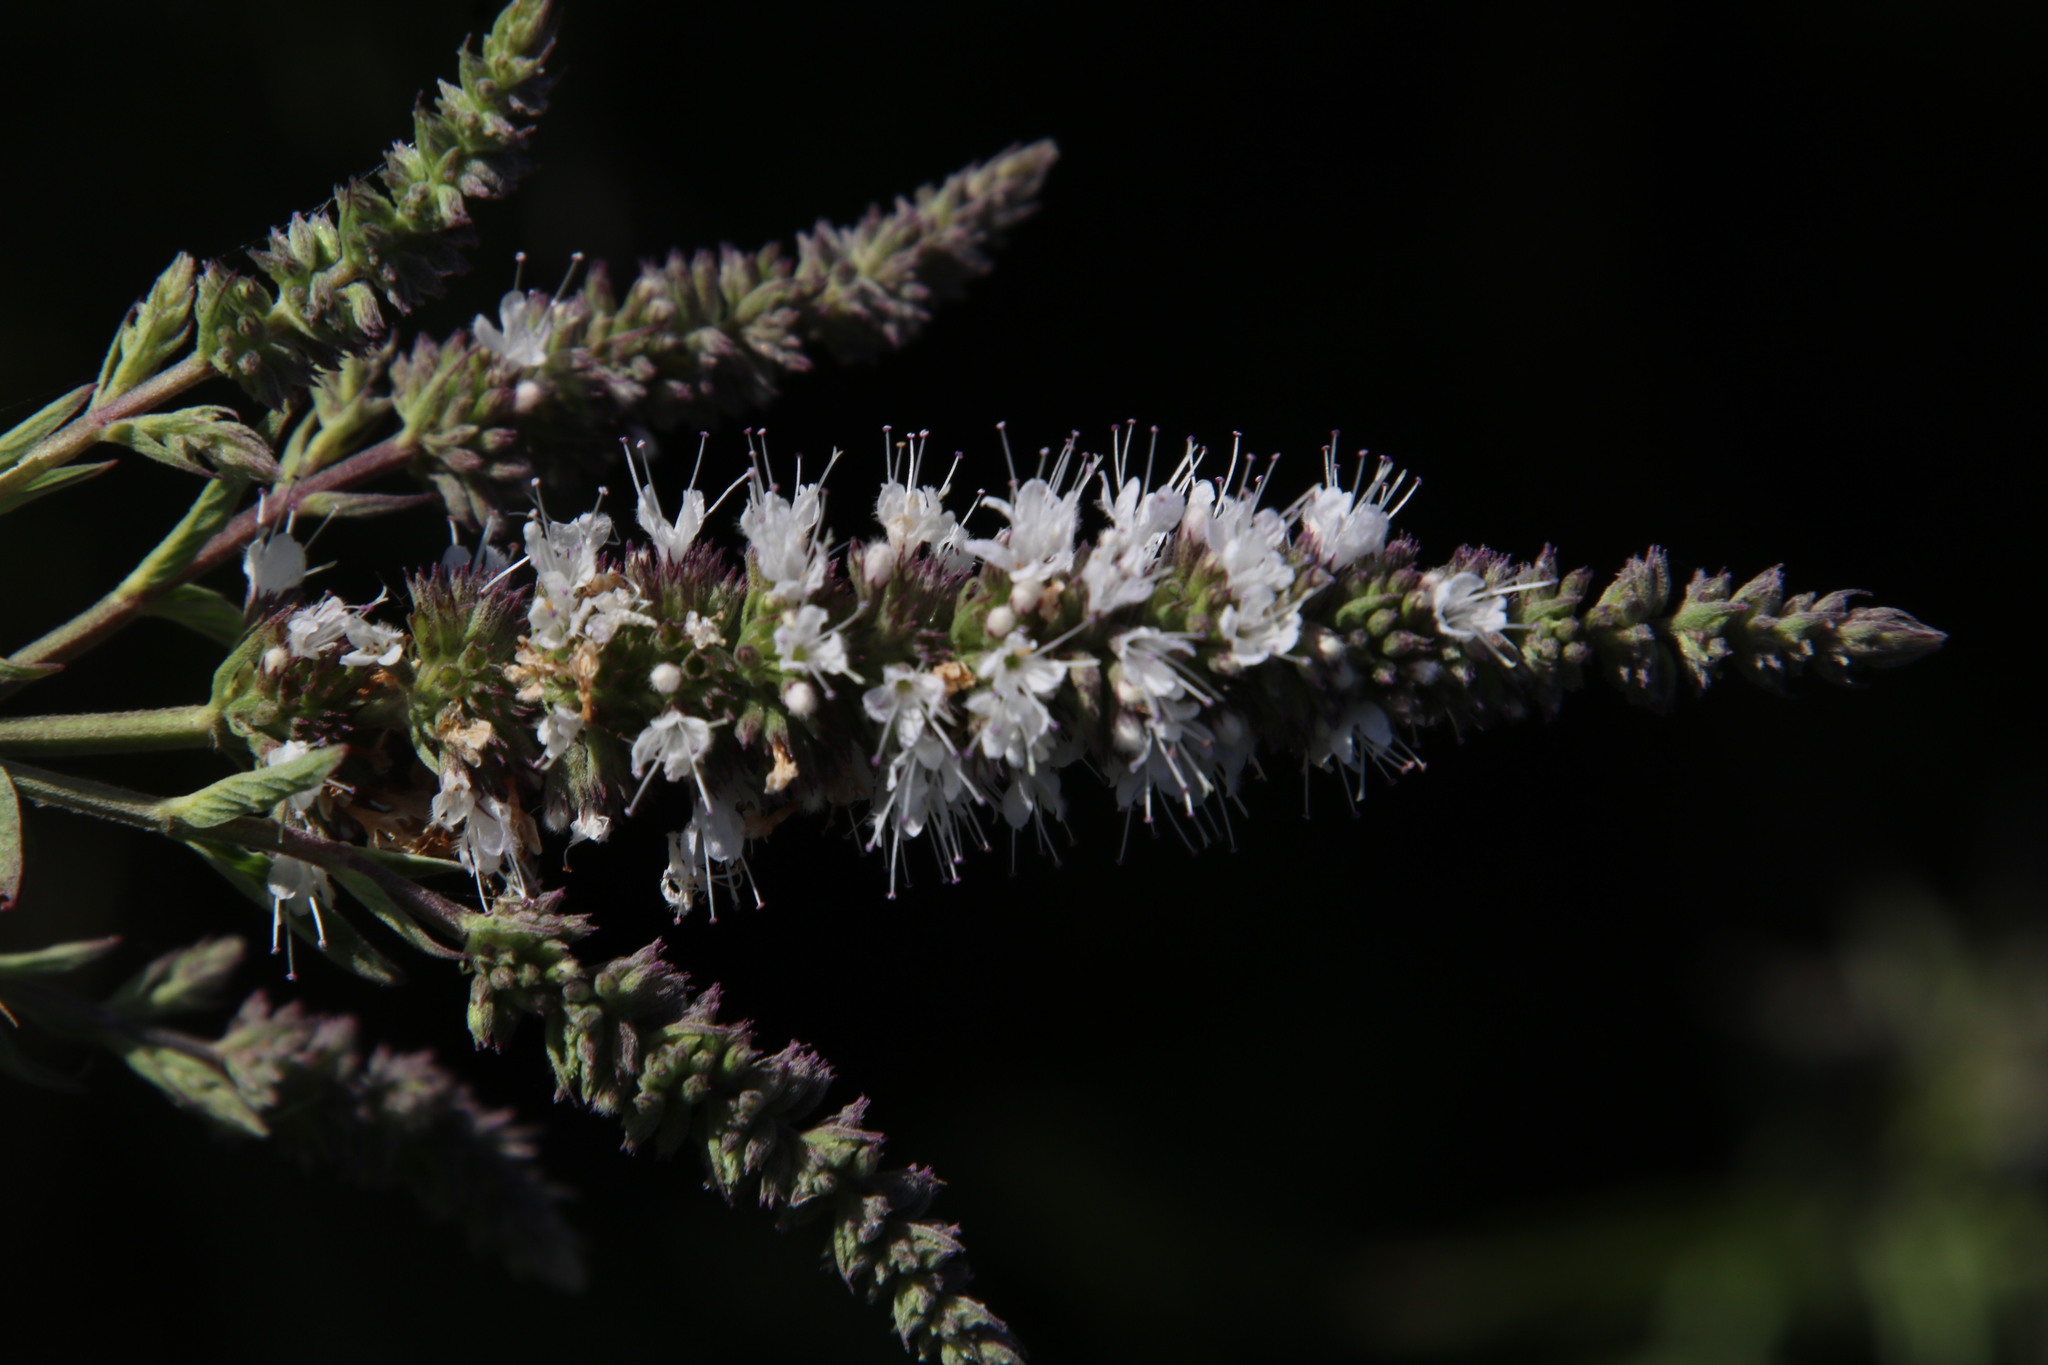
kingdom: Plantae
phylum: Tracheophyta
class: Magnoliopsida
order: Lamiales
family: Lamiaceae
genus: Mentha
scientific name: Mentha longifolia
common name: Horse mint
